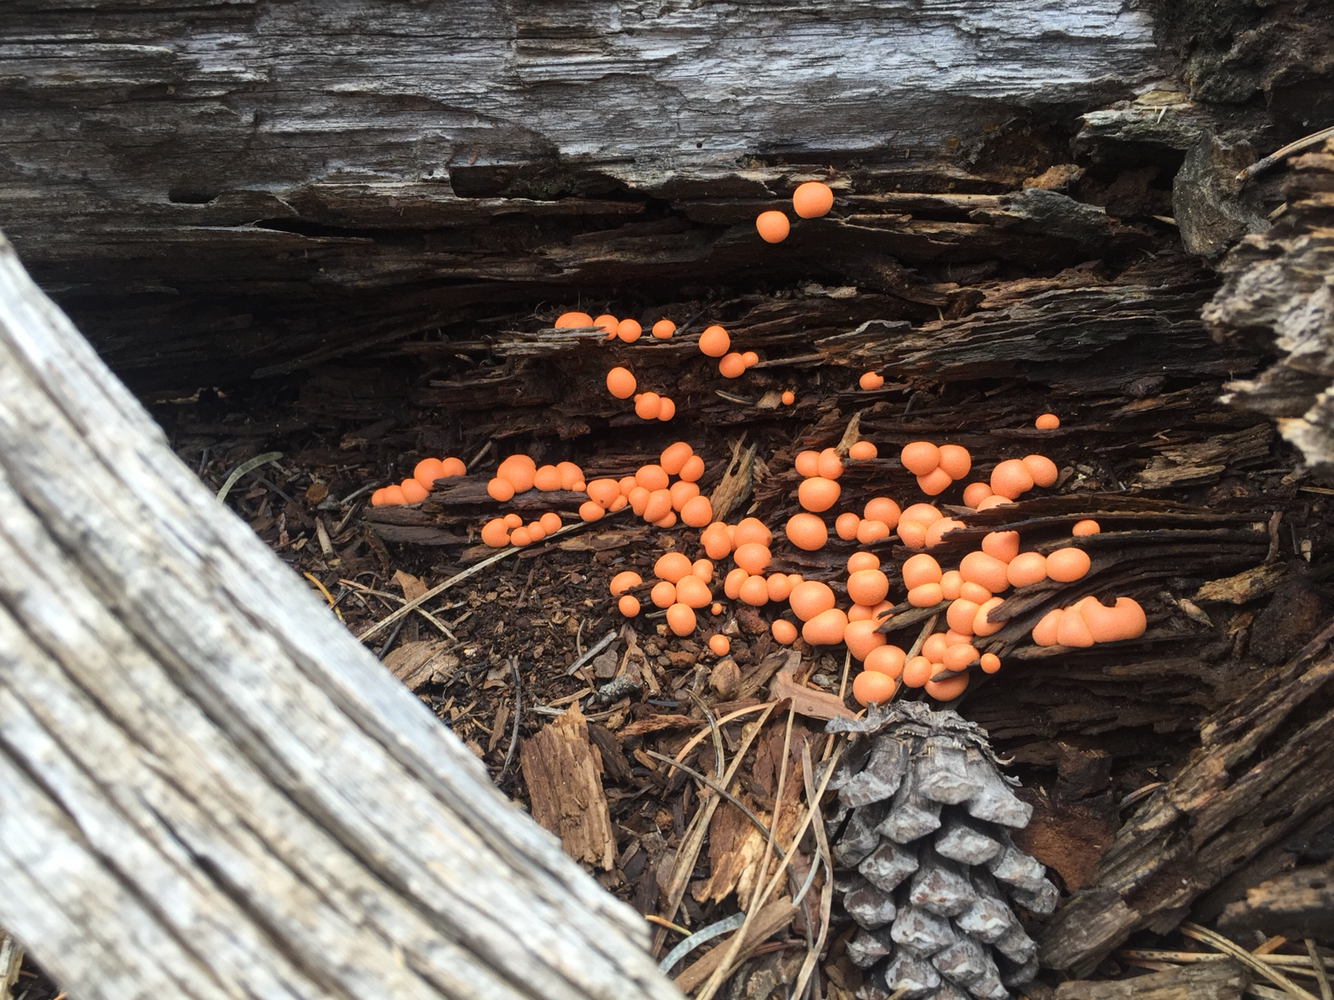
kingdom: Protozoa
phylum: Mycetozoa
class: Myxomycetes
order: Cribrariales
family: Tubiferaceae
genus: Lycogala
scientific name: Lycogala epidendrum
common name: Wolf's milk
